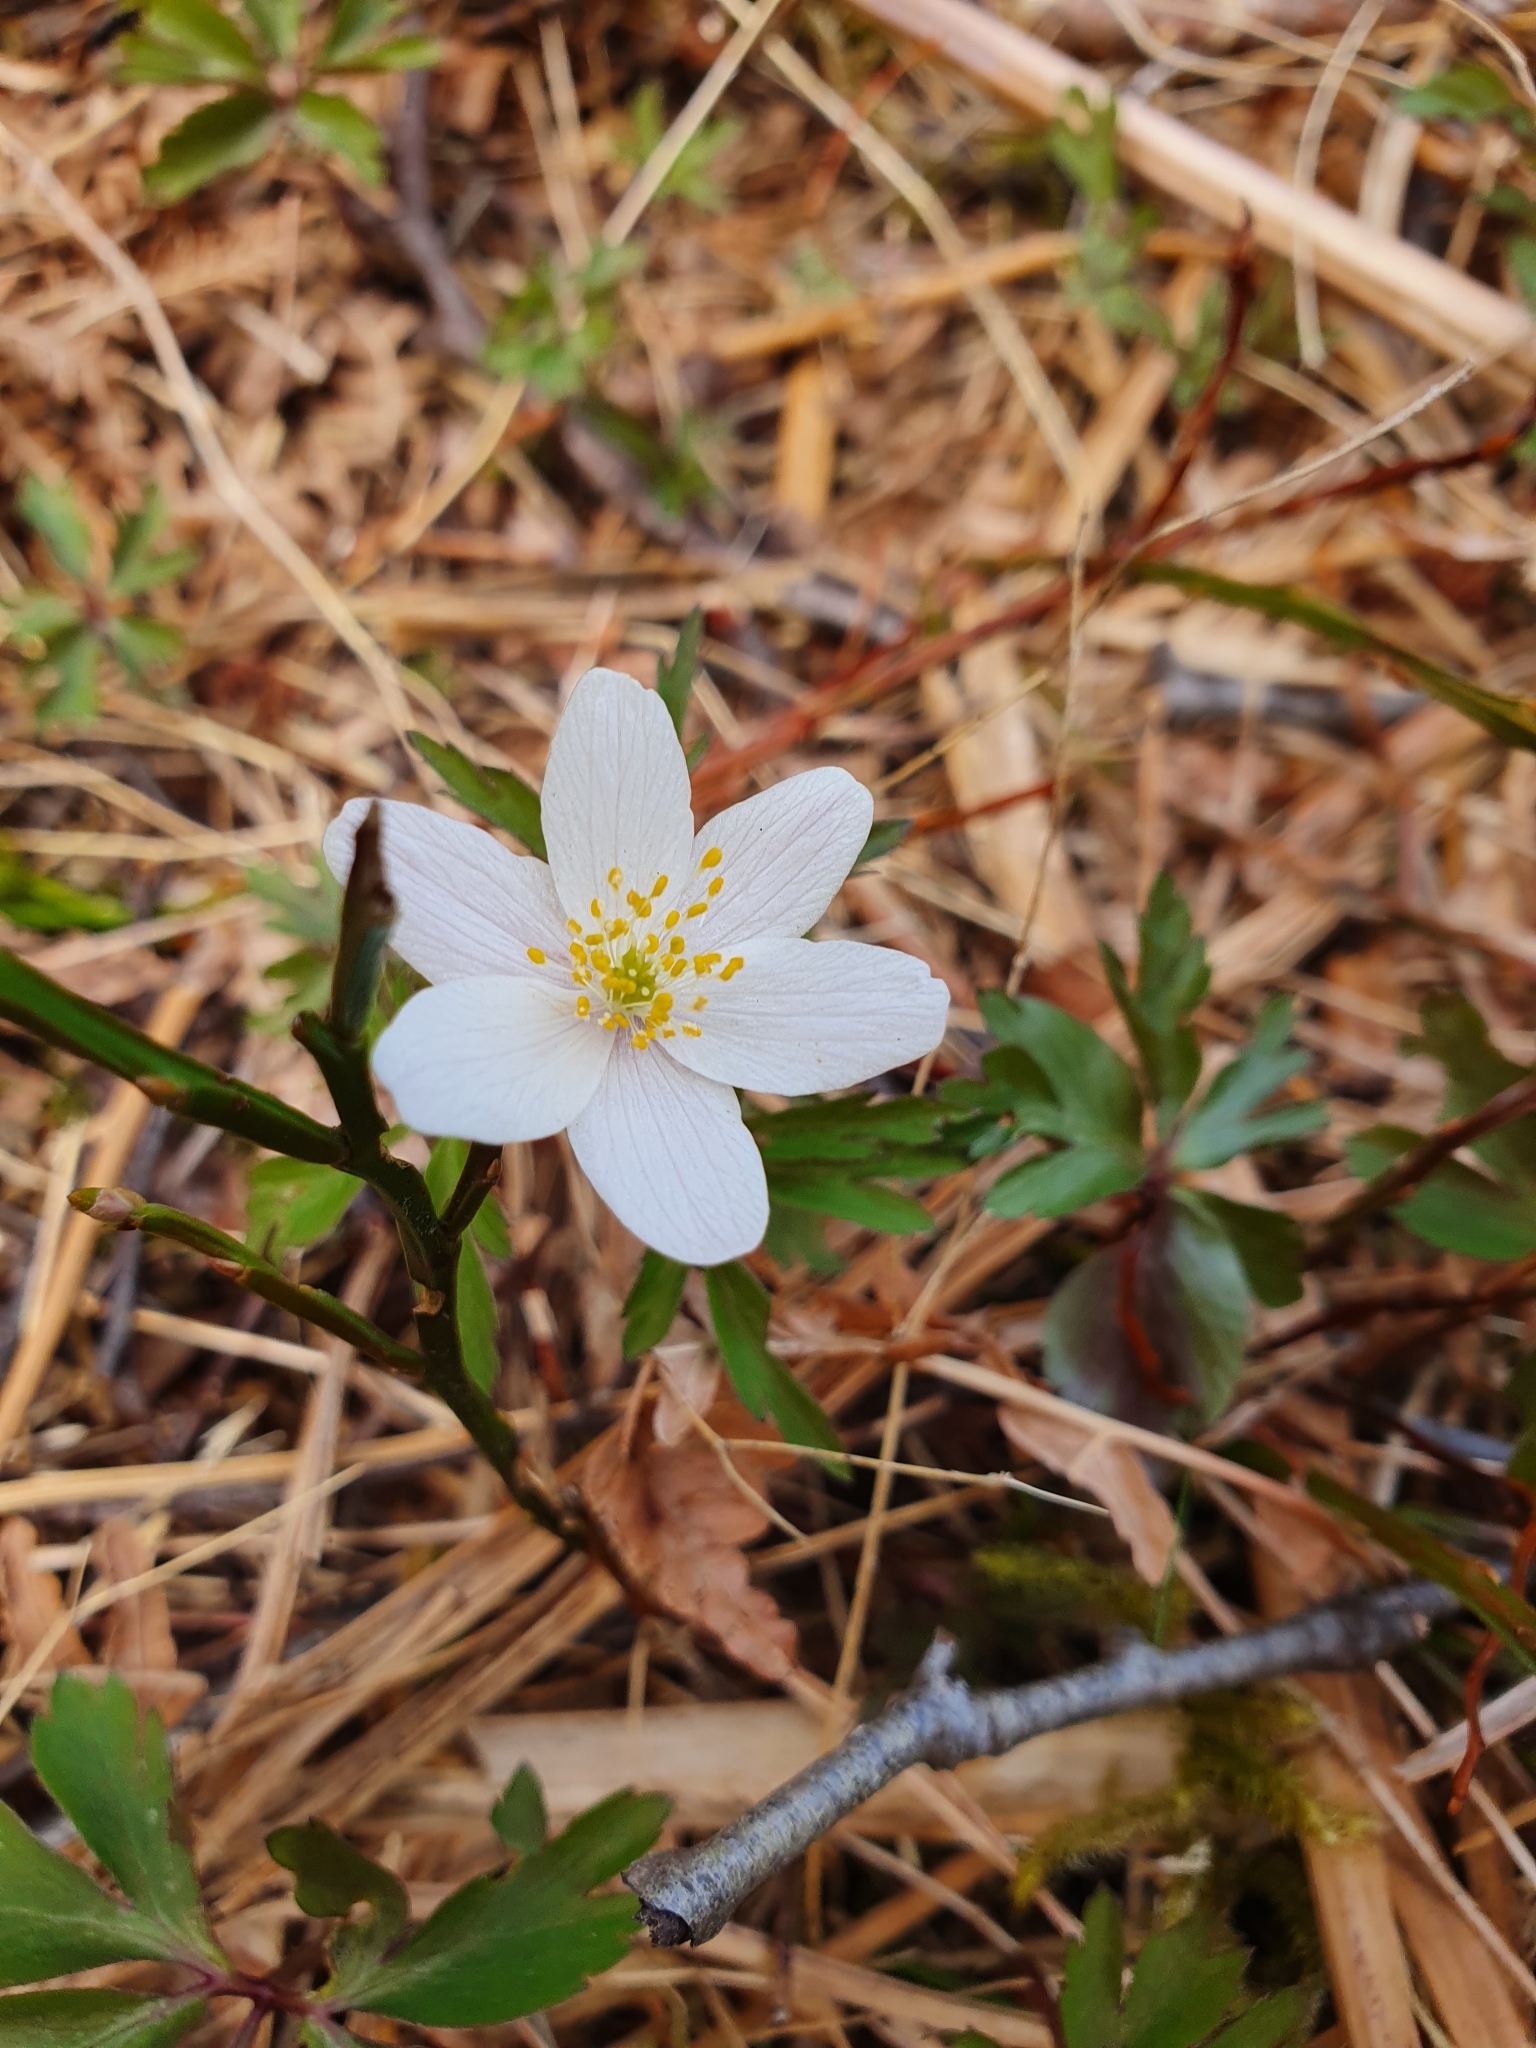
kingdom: Plantae
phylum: Tracheophyta
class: Magnoliopsida
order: Ranunculales
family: Ranunculaceae
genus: Anemone
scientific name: Anemone nemorosa
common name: Wood anemone
